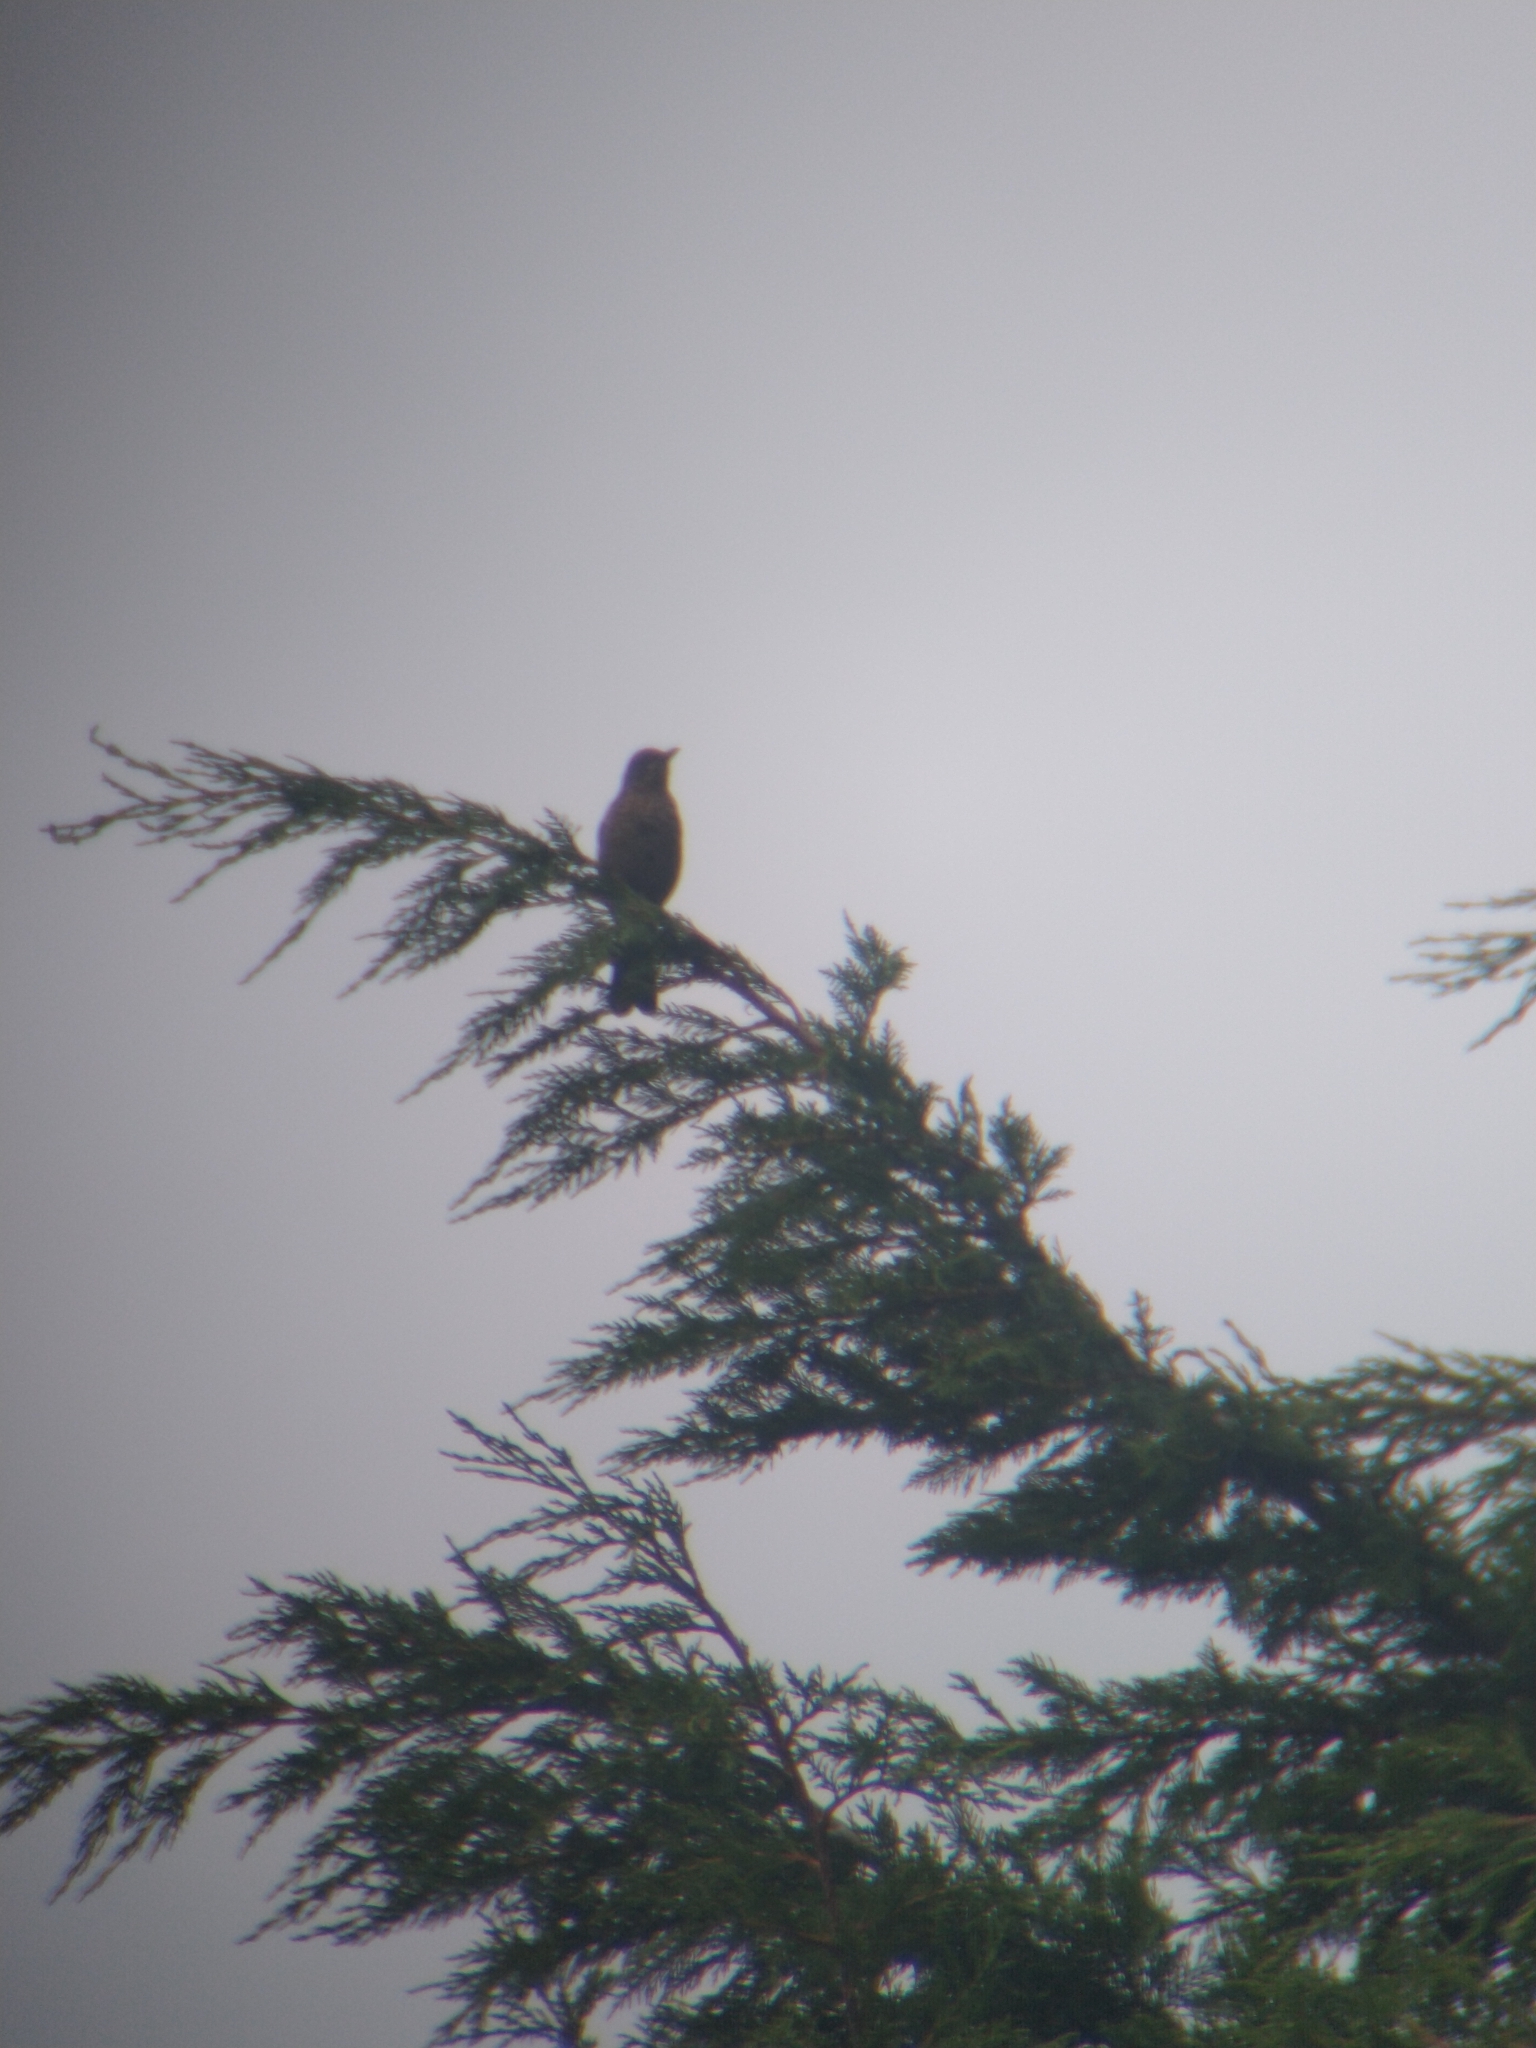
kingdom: Animalia
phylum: Chordata
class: Aves
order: Passeriformes
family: Turdidae
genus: Turdus
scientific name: Turdus merula
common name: Common blackbird
